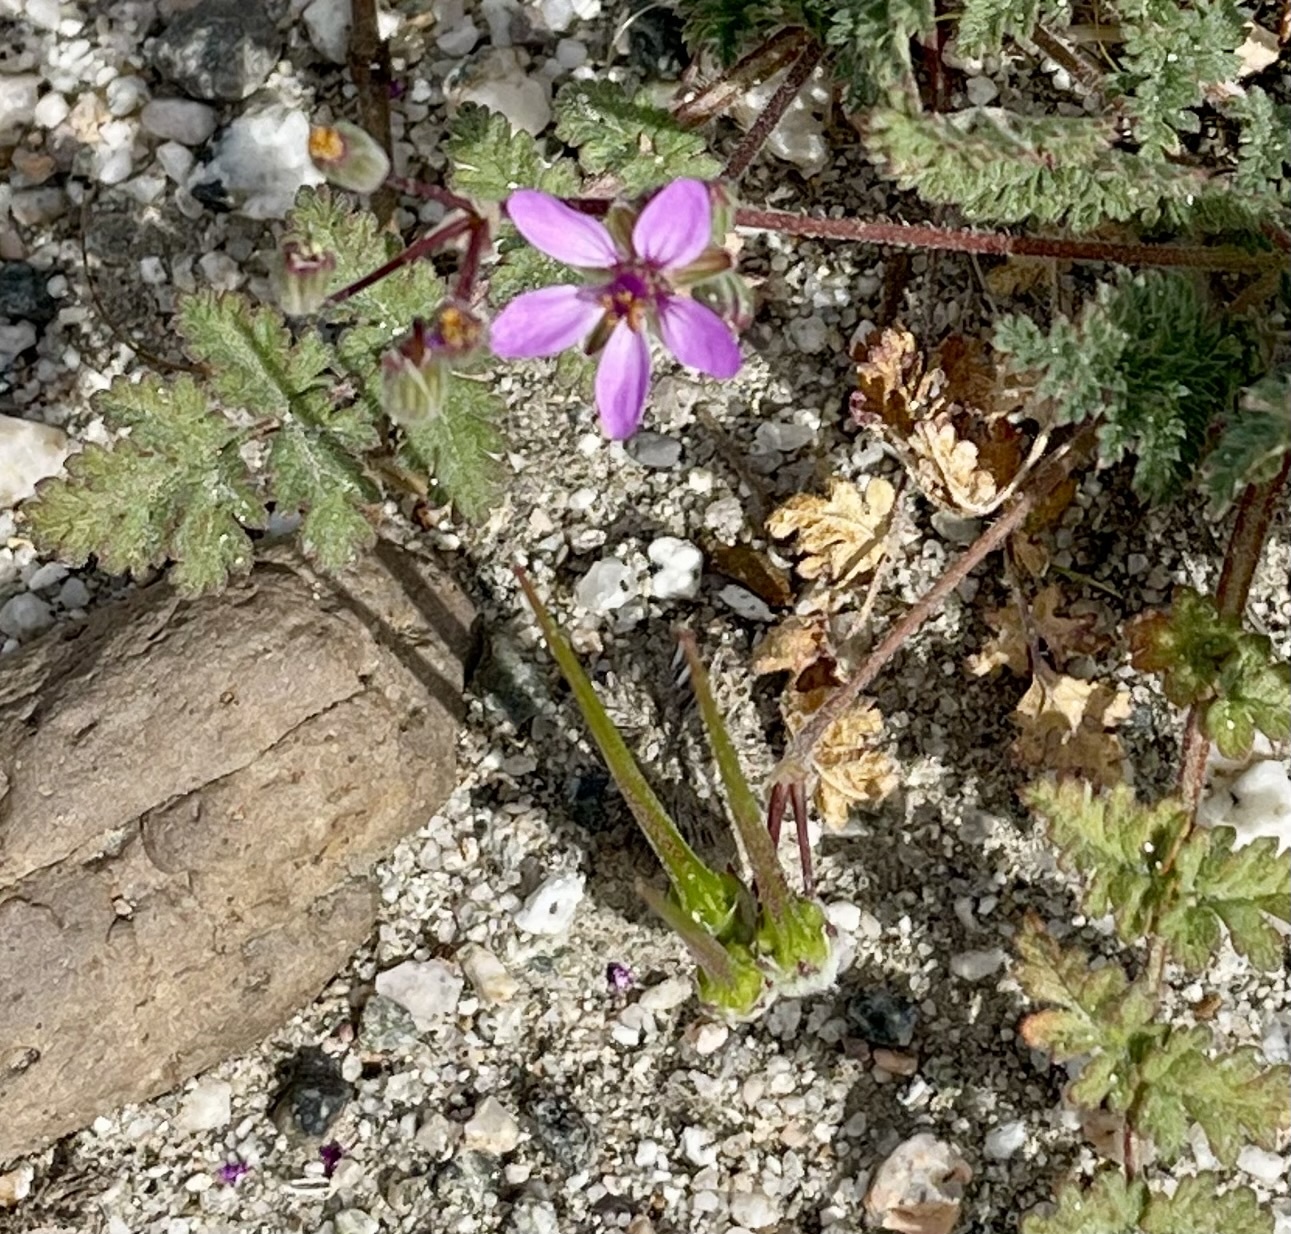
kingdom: Plantae
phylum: Tracheophyta
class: Magnoliopsida
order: Geraniales
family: Geraniaceae
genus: Erodium
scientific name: Erodium cicutarium
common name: Common stork's-bill
